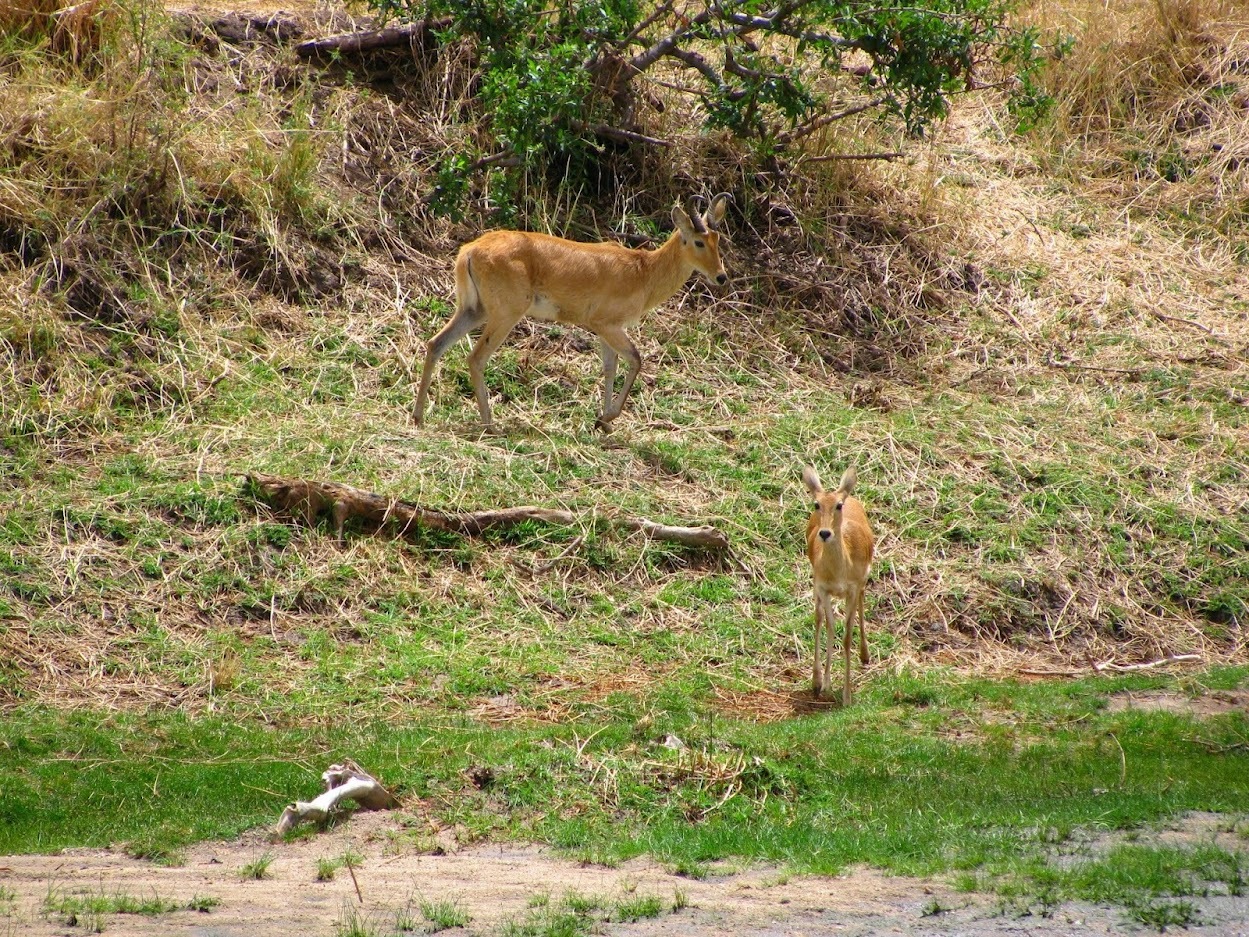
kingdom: Animalia
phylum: Chordata
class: Mammalia
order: Artiodactyla
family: Bovidae
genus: Redunca
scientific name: Redunca redunca
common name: Common reedbuck
